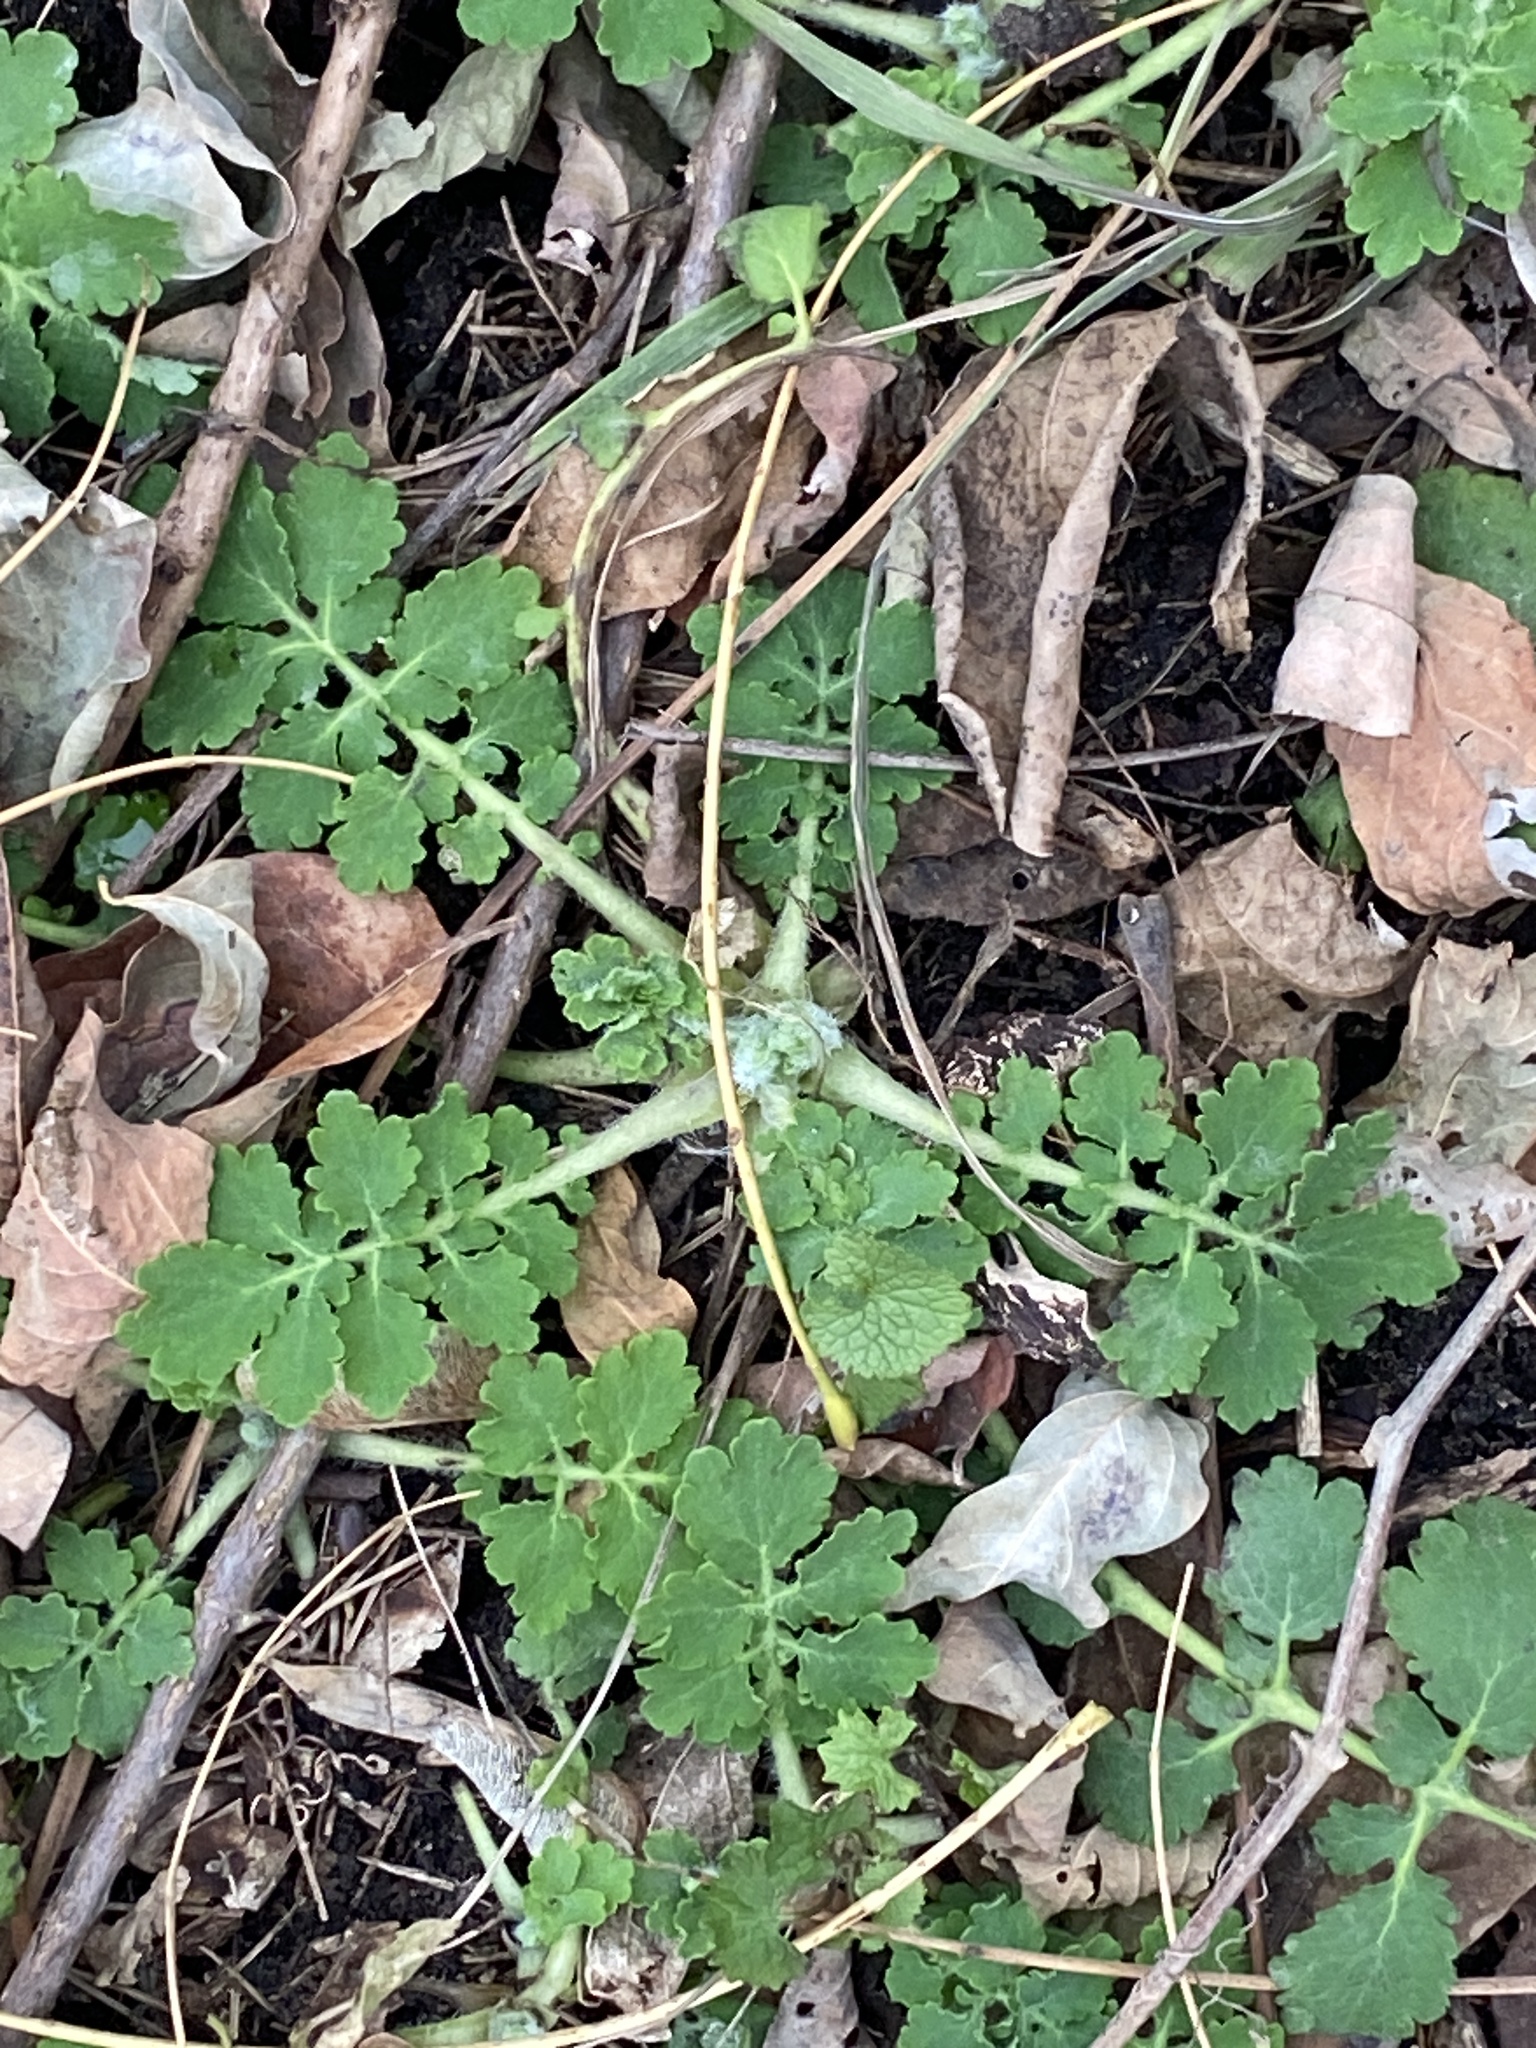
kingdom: Plantae
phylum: Tracheophyta
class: Magnoliopsida
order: Ranunculales
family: Papaveraceae
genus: Chelidonium
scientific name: Chelidonium majus
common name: Greater celandine
